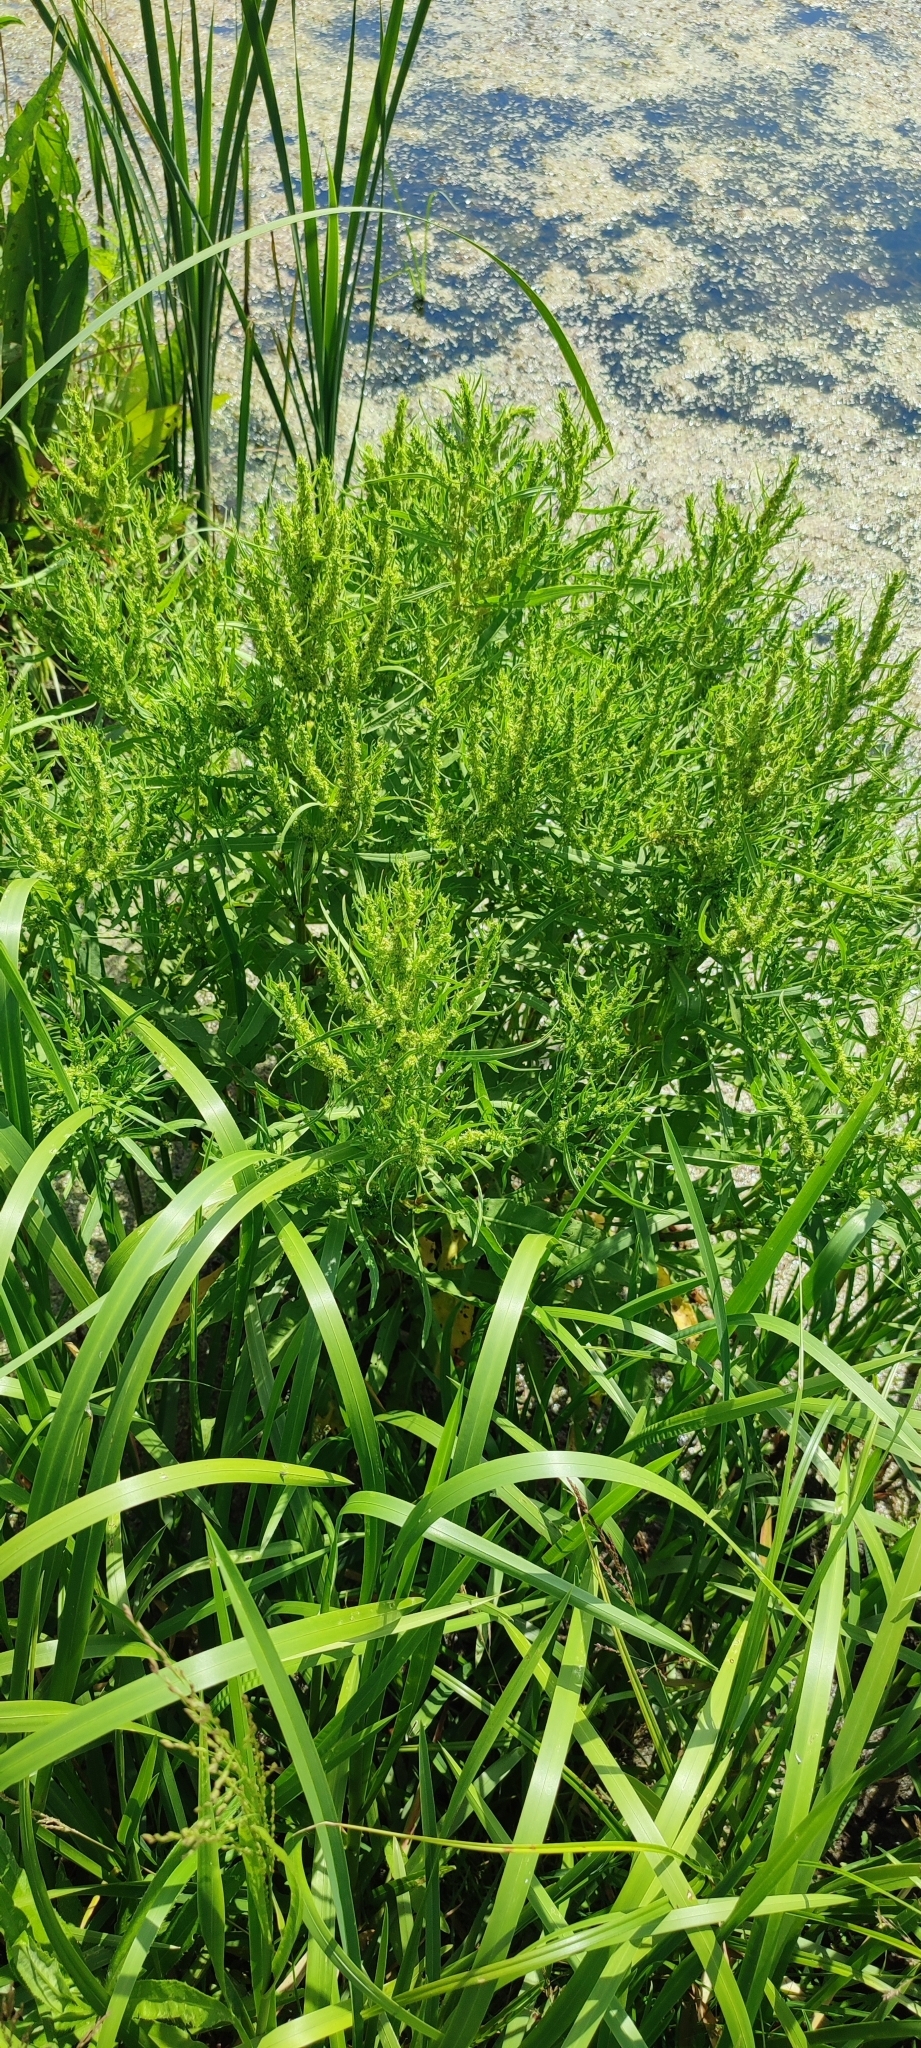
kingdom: Plantae
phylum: Tracheophyta
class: Magnoliopsida
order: Caryophyllales
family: Polygonaceae
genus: Rumex
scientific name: Rumex maritimus
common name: Golden dock
